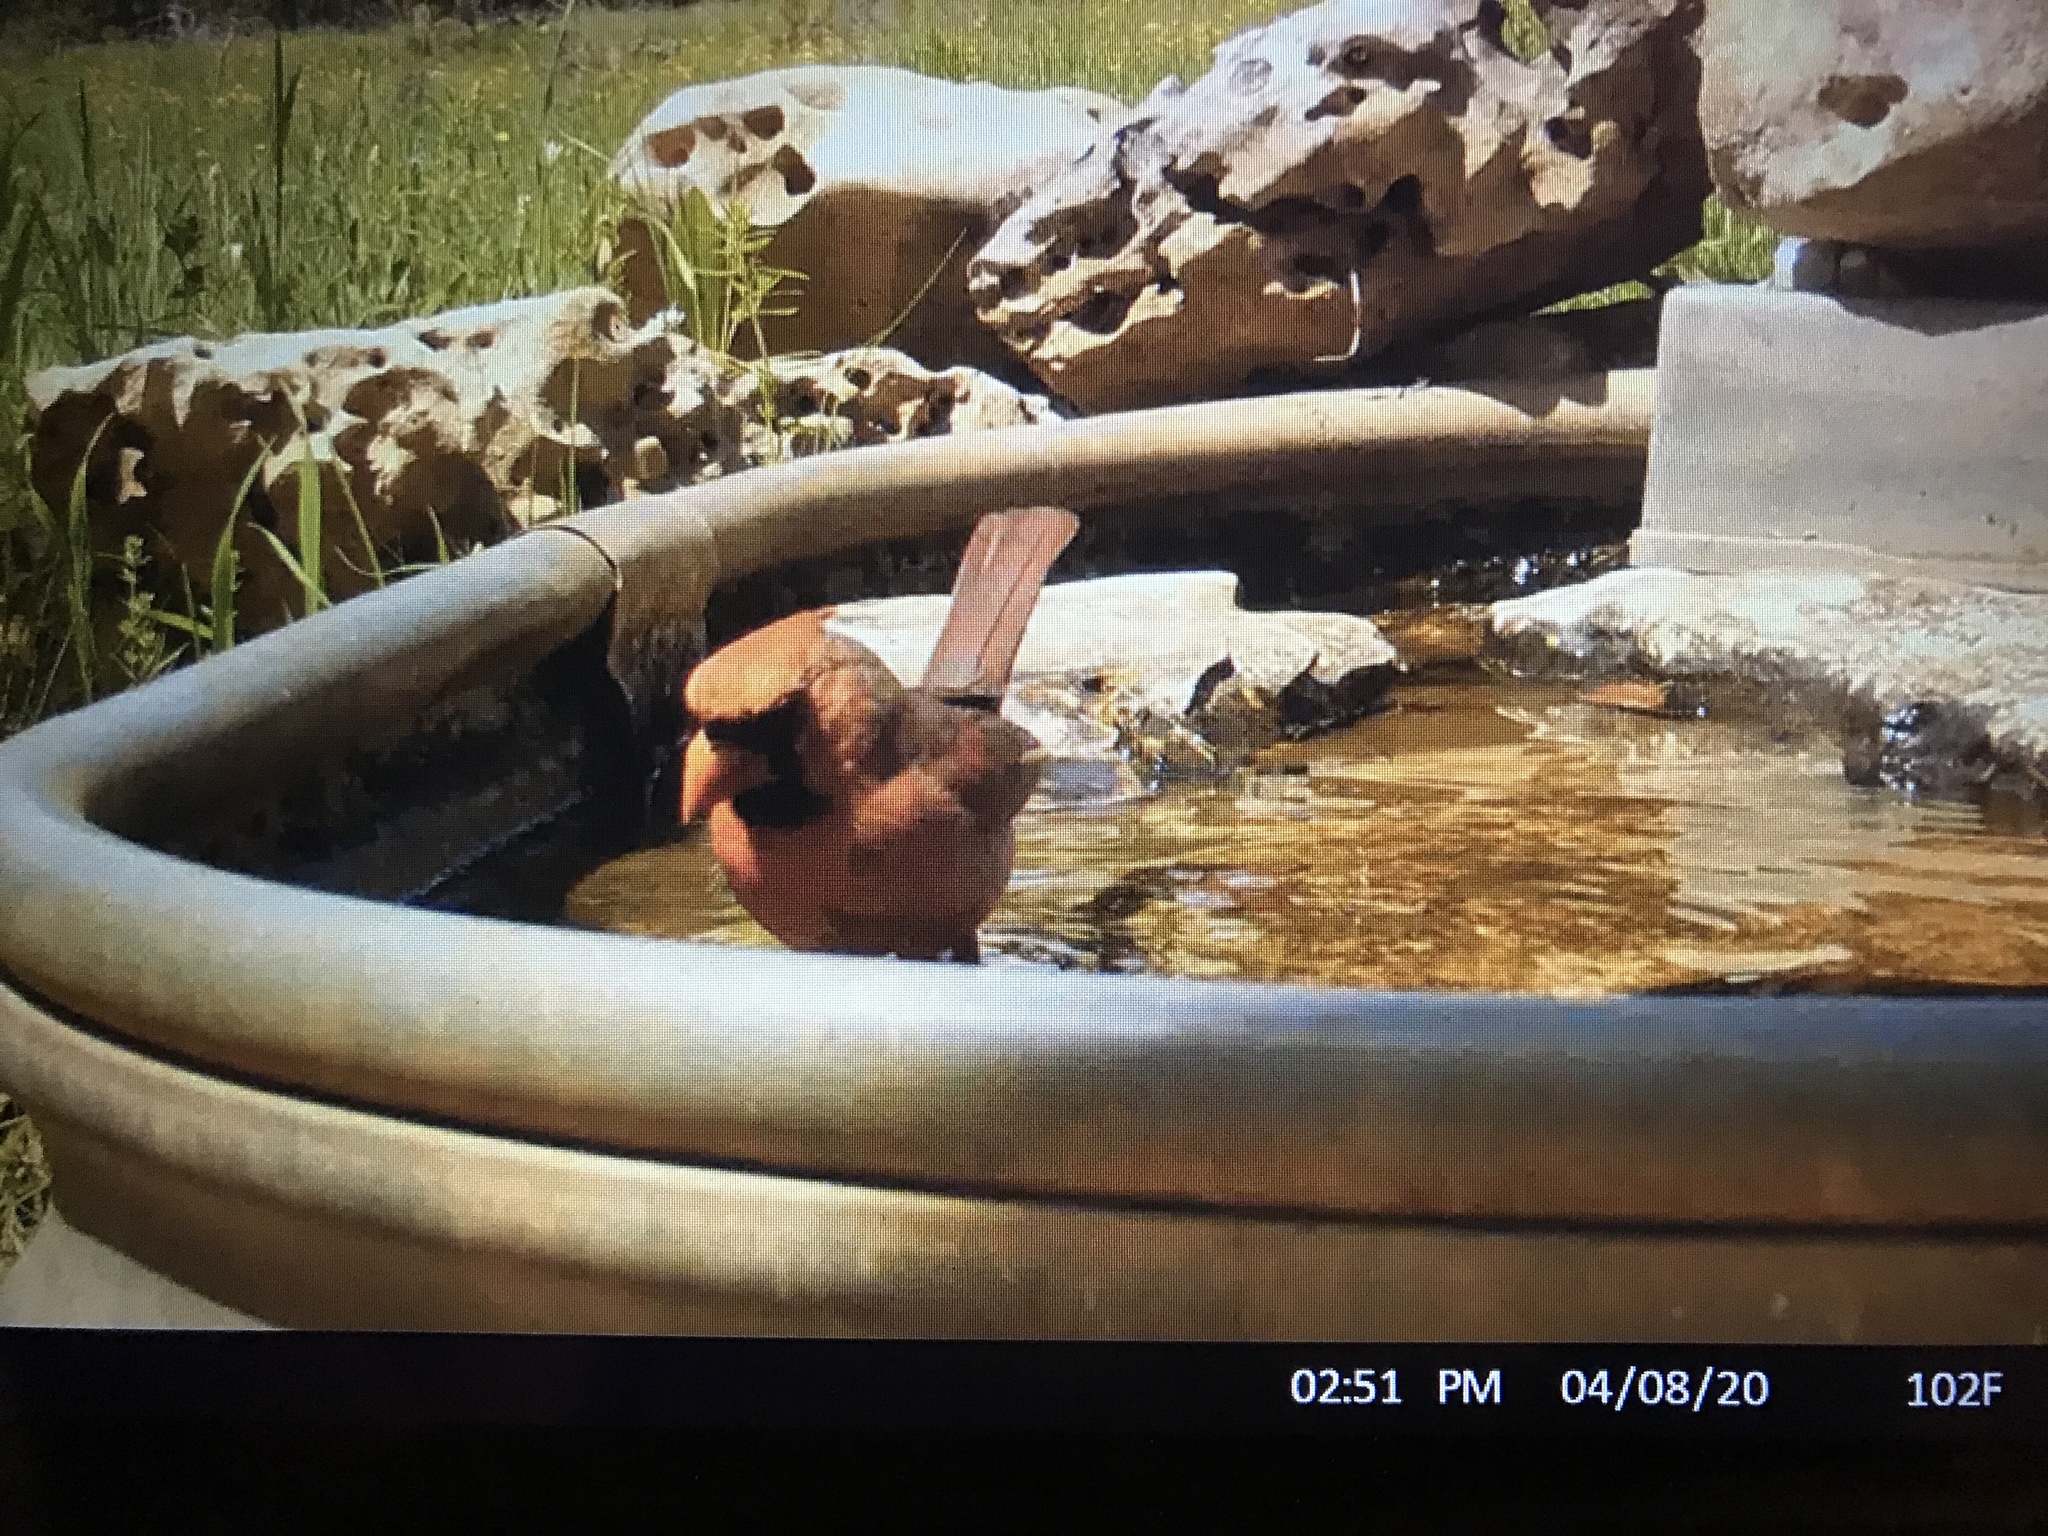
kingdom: Animalia
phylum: Chordata
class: Aves
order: Passeriformes
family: Cardinalidae
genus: Cardinalis
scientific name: Cardinalis cardinalis
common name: Northern cardinal
